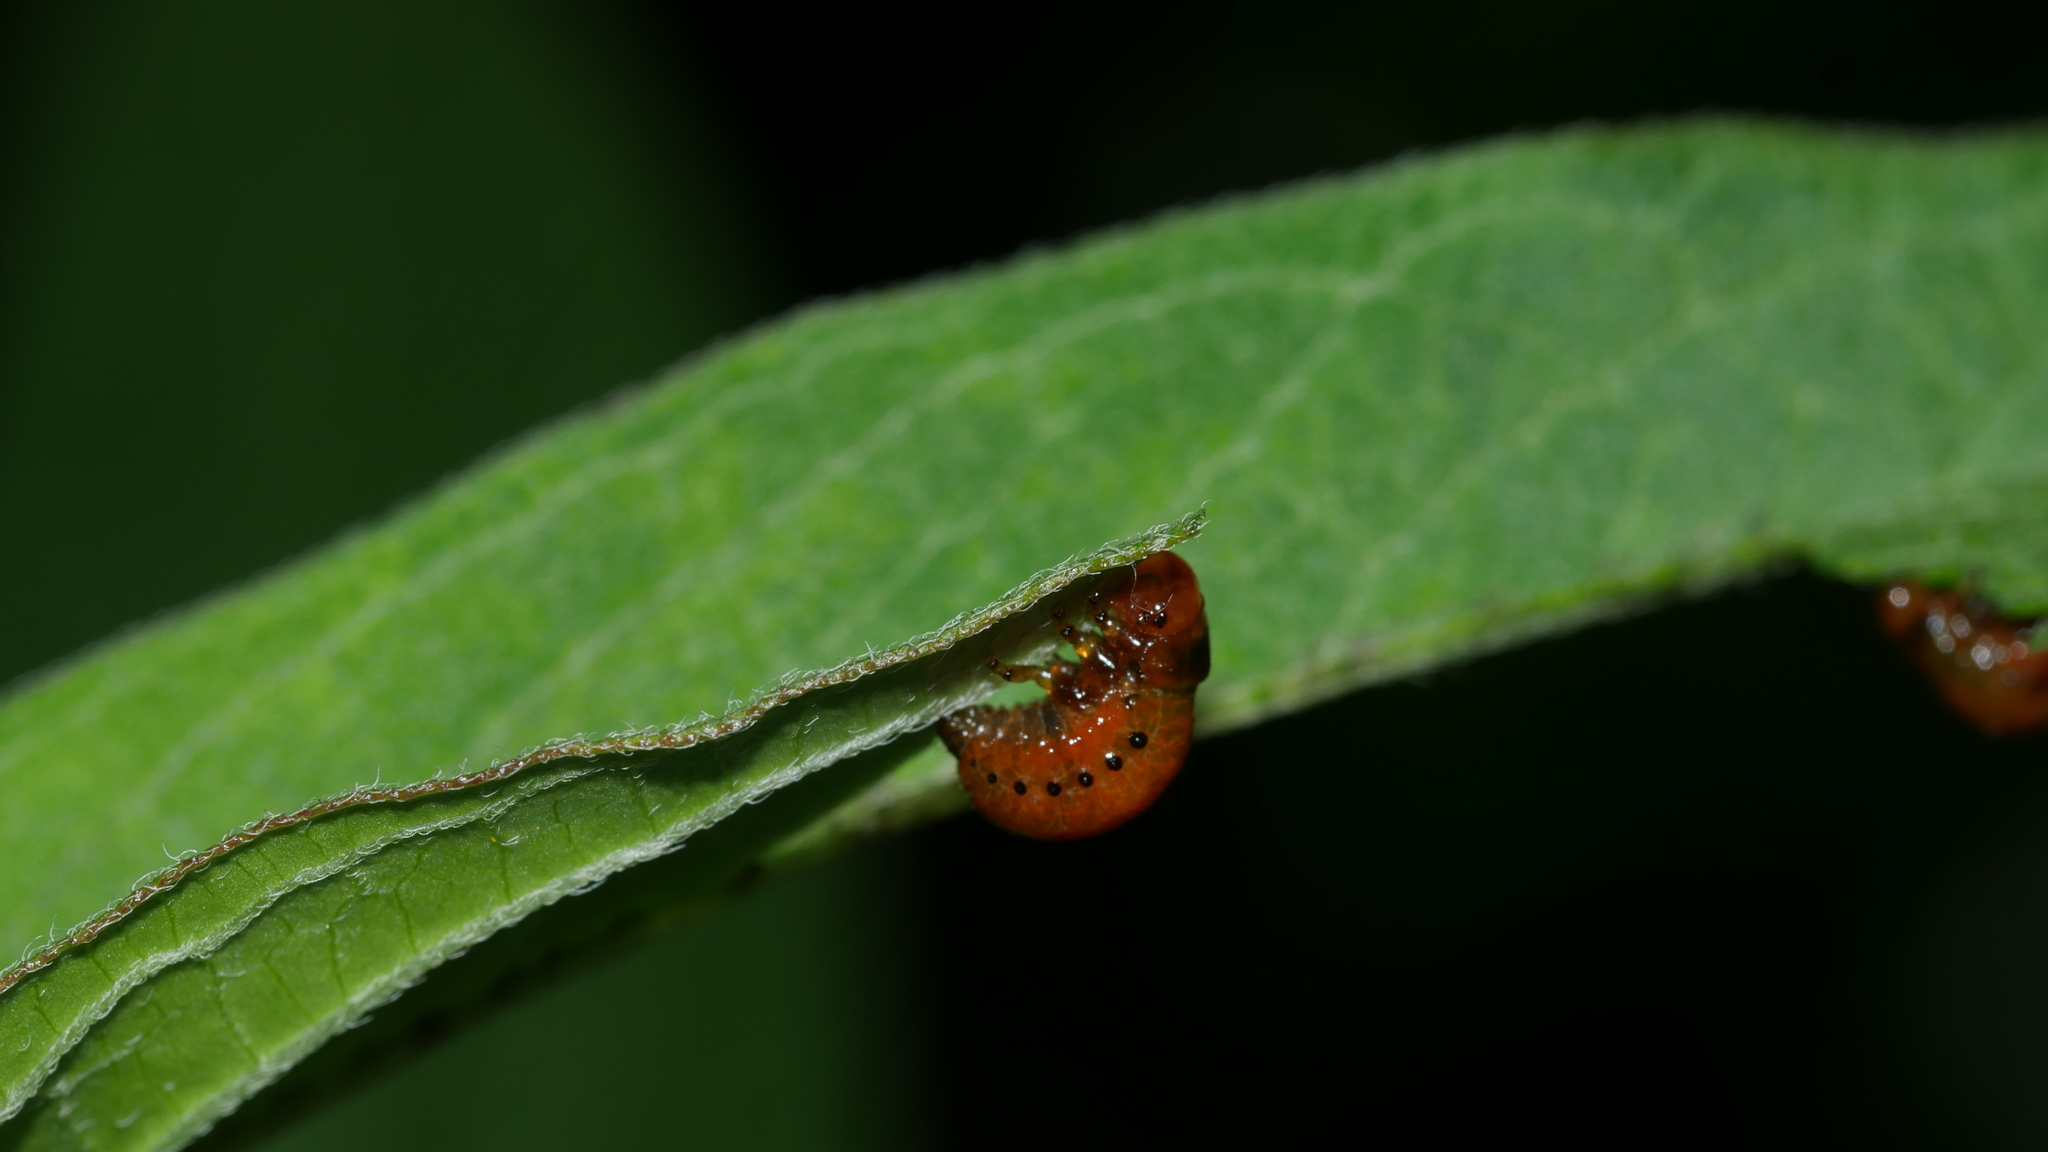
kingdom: Animalia
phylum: Arthropoda
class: Insecta
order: Coleoptera
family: Chrysomelidae
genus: Labidomera
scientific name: Labidomera clivicollis
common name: Swamp milkweed leaf beetle
